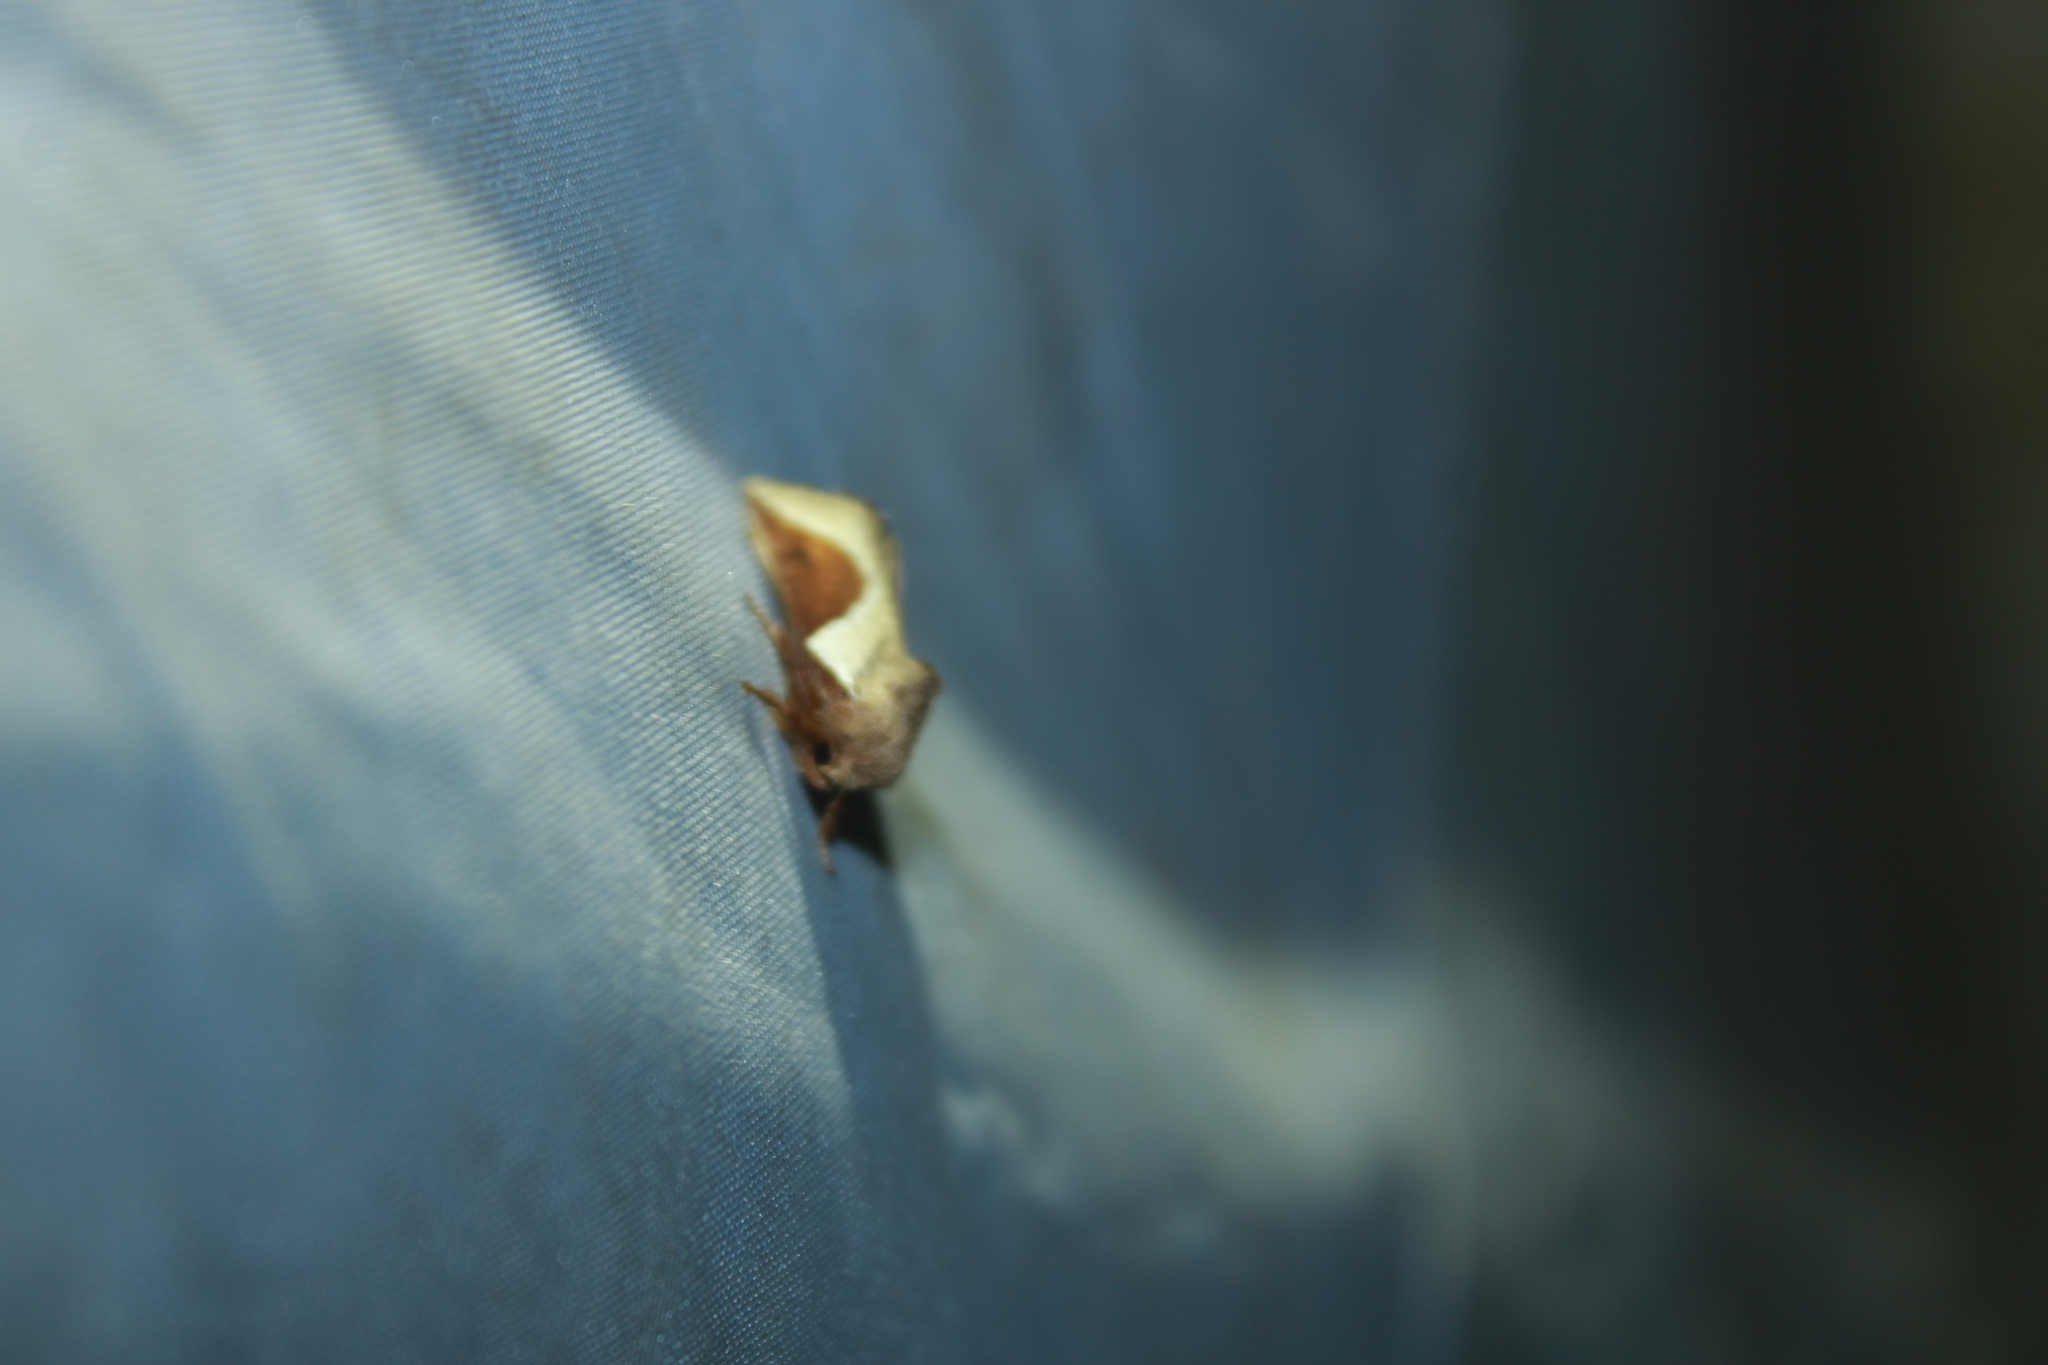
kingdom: Animalia
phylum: Arthropoda
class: Insecta
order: Lepidoptera
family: Limacodidae
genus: Prolimacodes
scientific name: Prolimacodes badia
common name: Skiff moth
